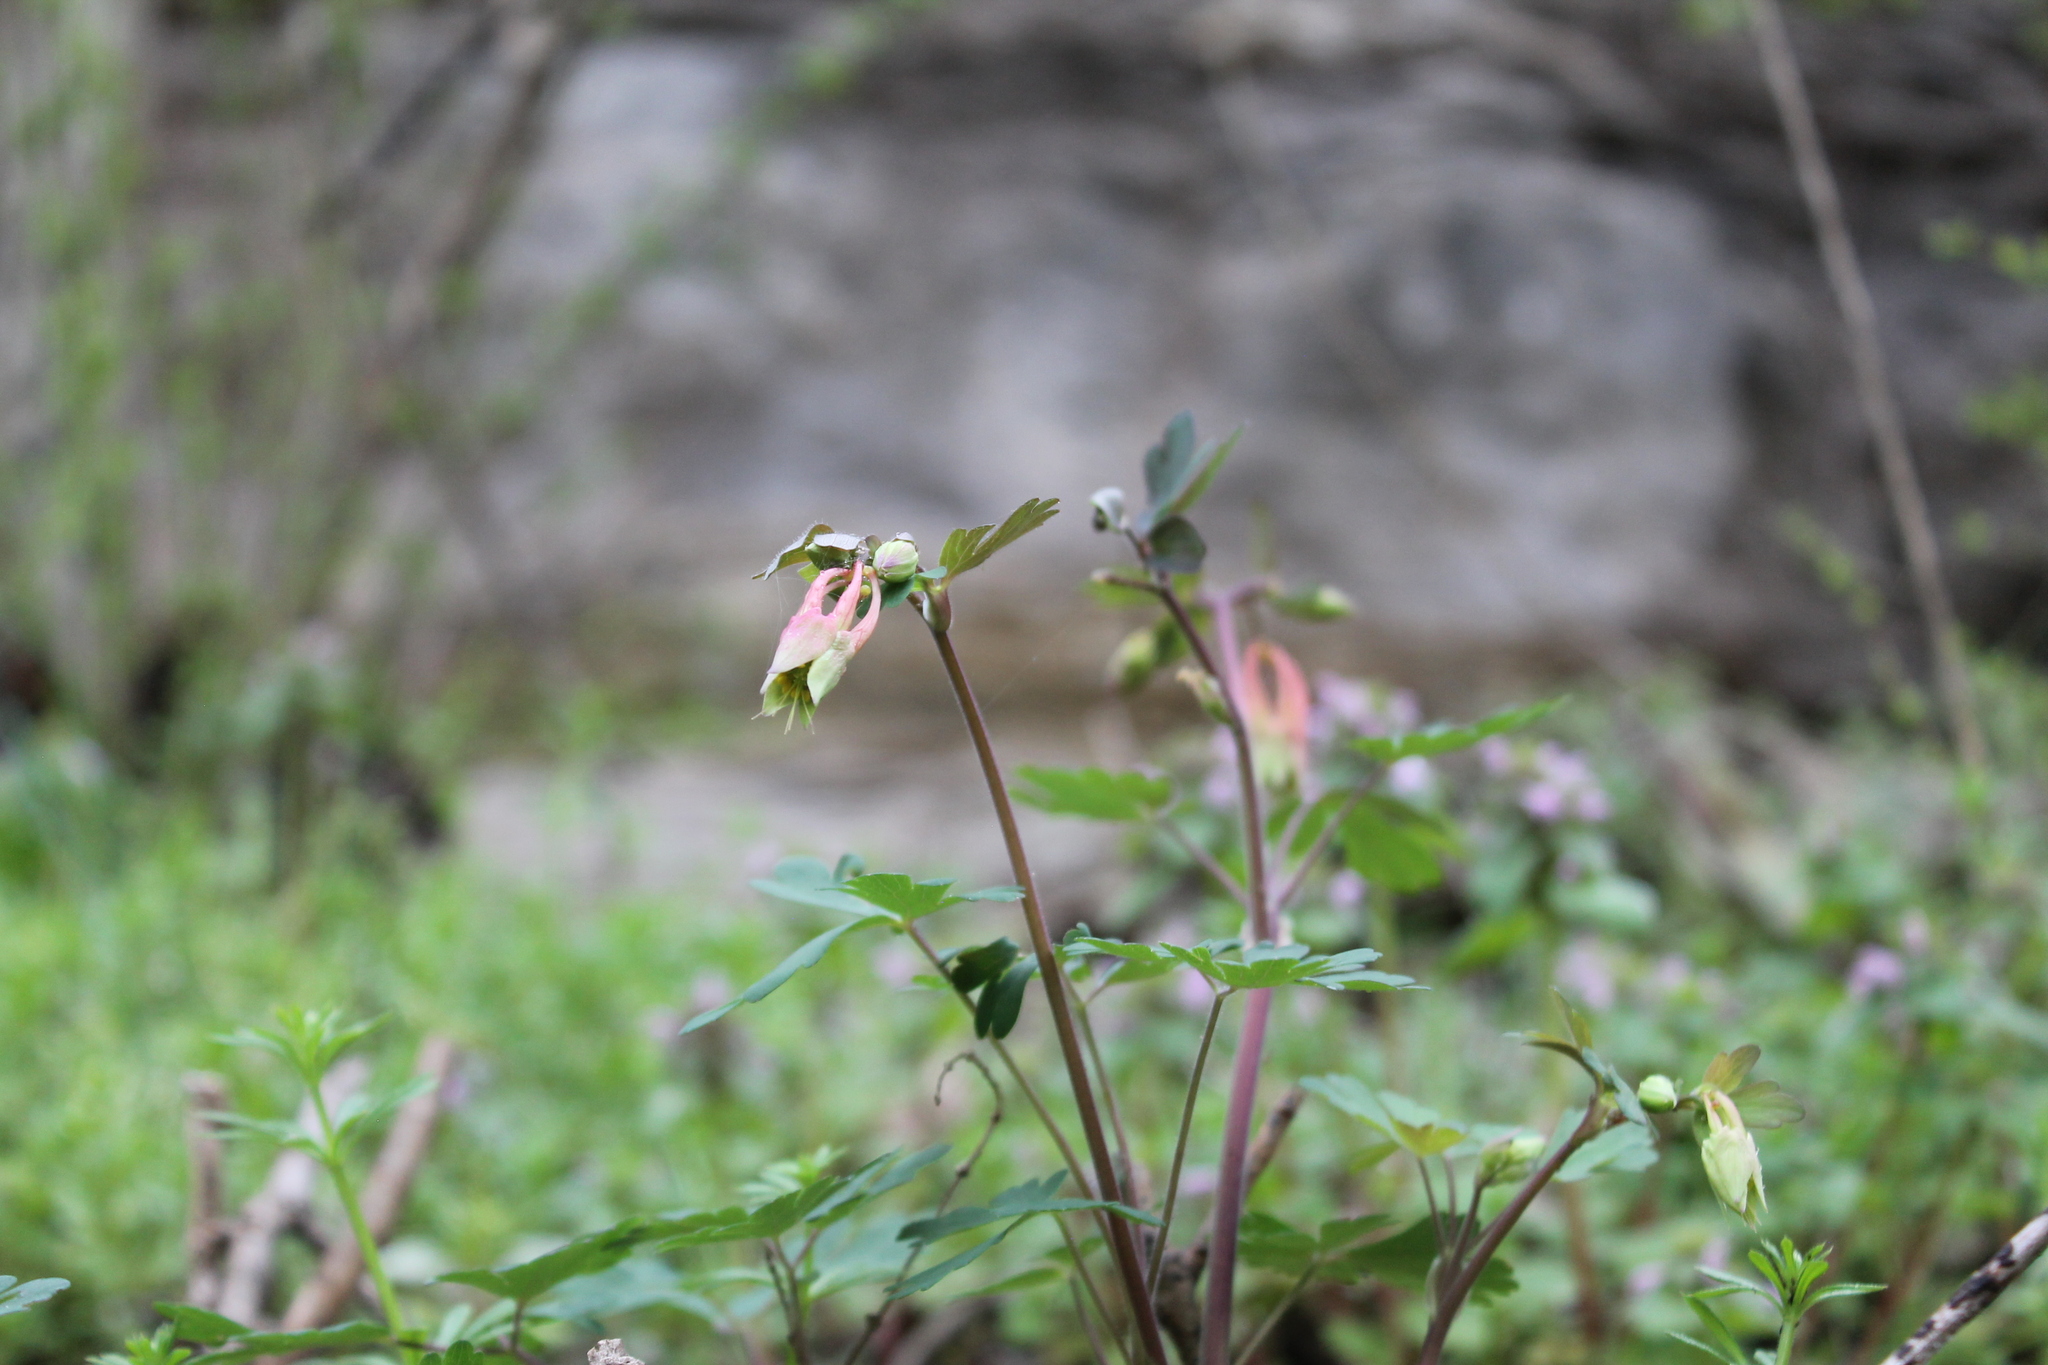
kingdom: Plantae
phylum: Tracheophyta
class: Magnoliopsida
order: Ranunculales
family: Ranunculaceae
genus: Aquilegia
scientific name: Aquilegia canadensis
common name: American columbine
